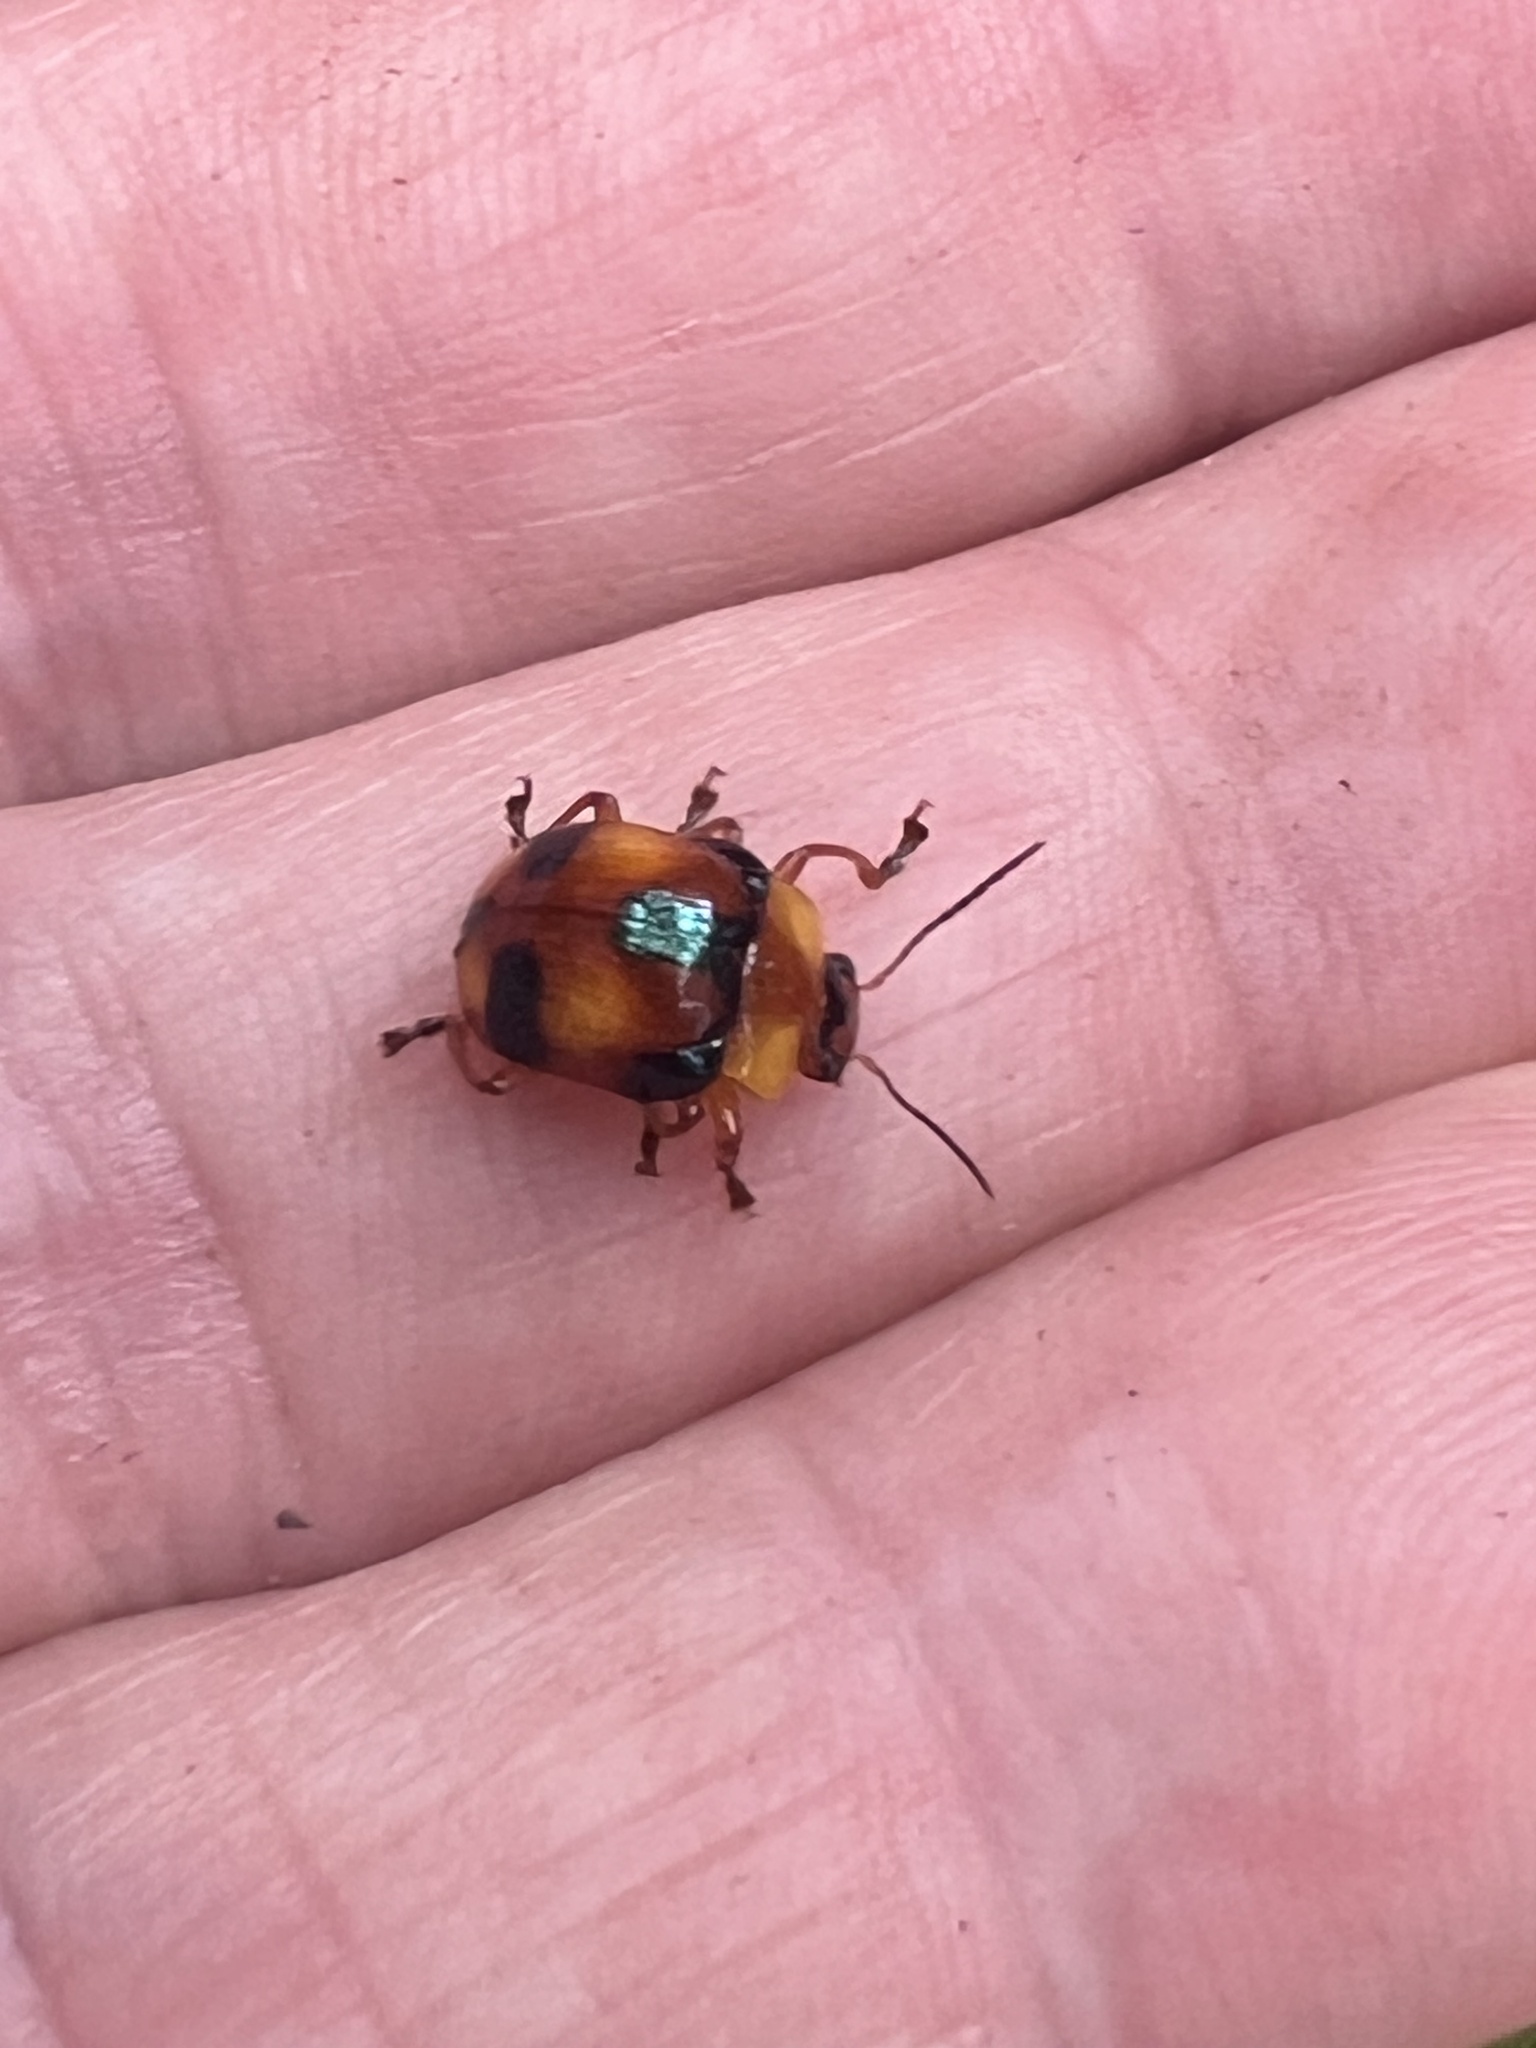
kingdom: Animalia
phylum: Arthropoda
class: Insecta
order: Coleoptera
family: Chrysomelidae
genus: Callidemum
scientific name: Callidemum
